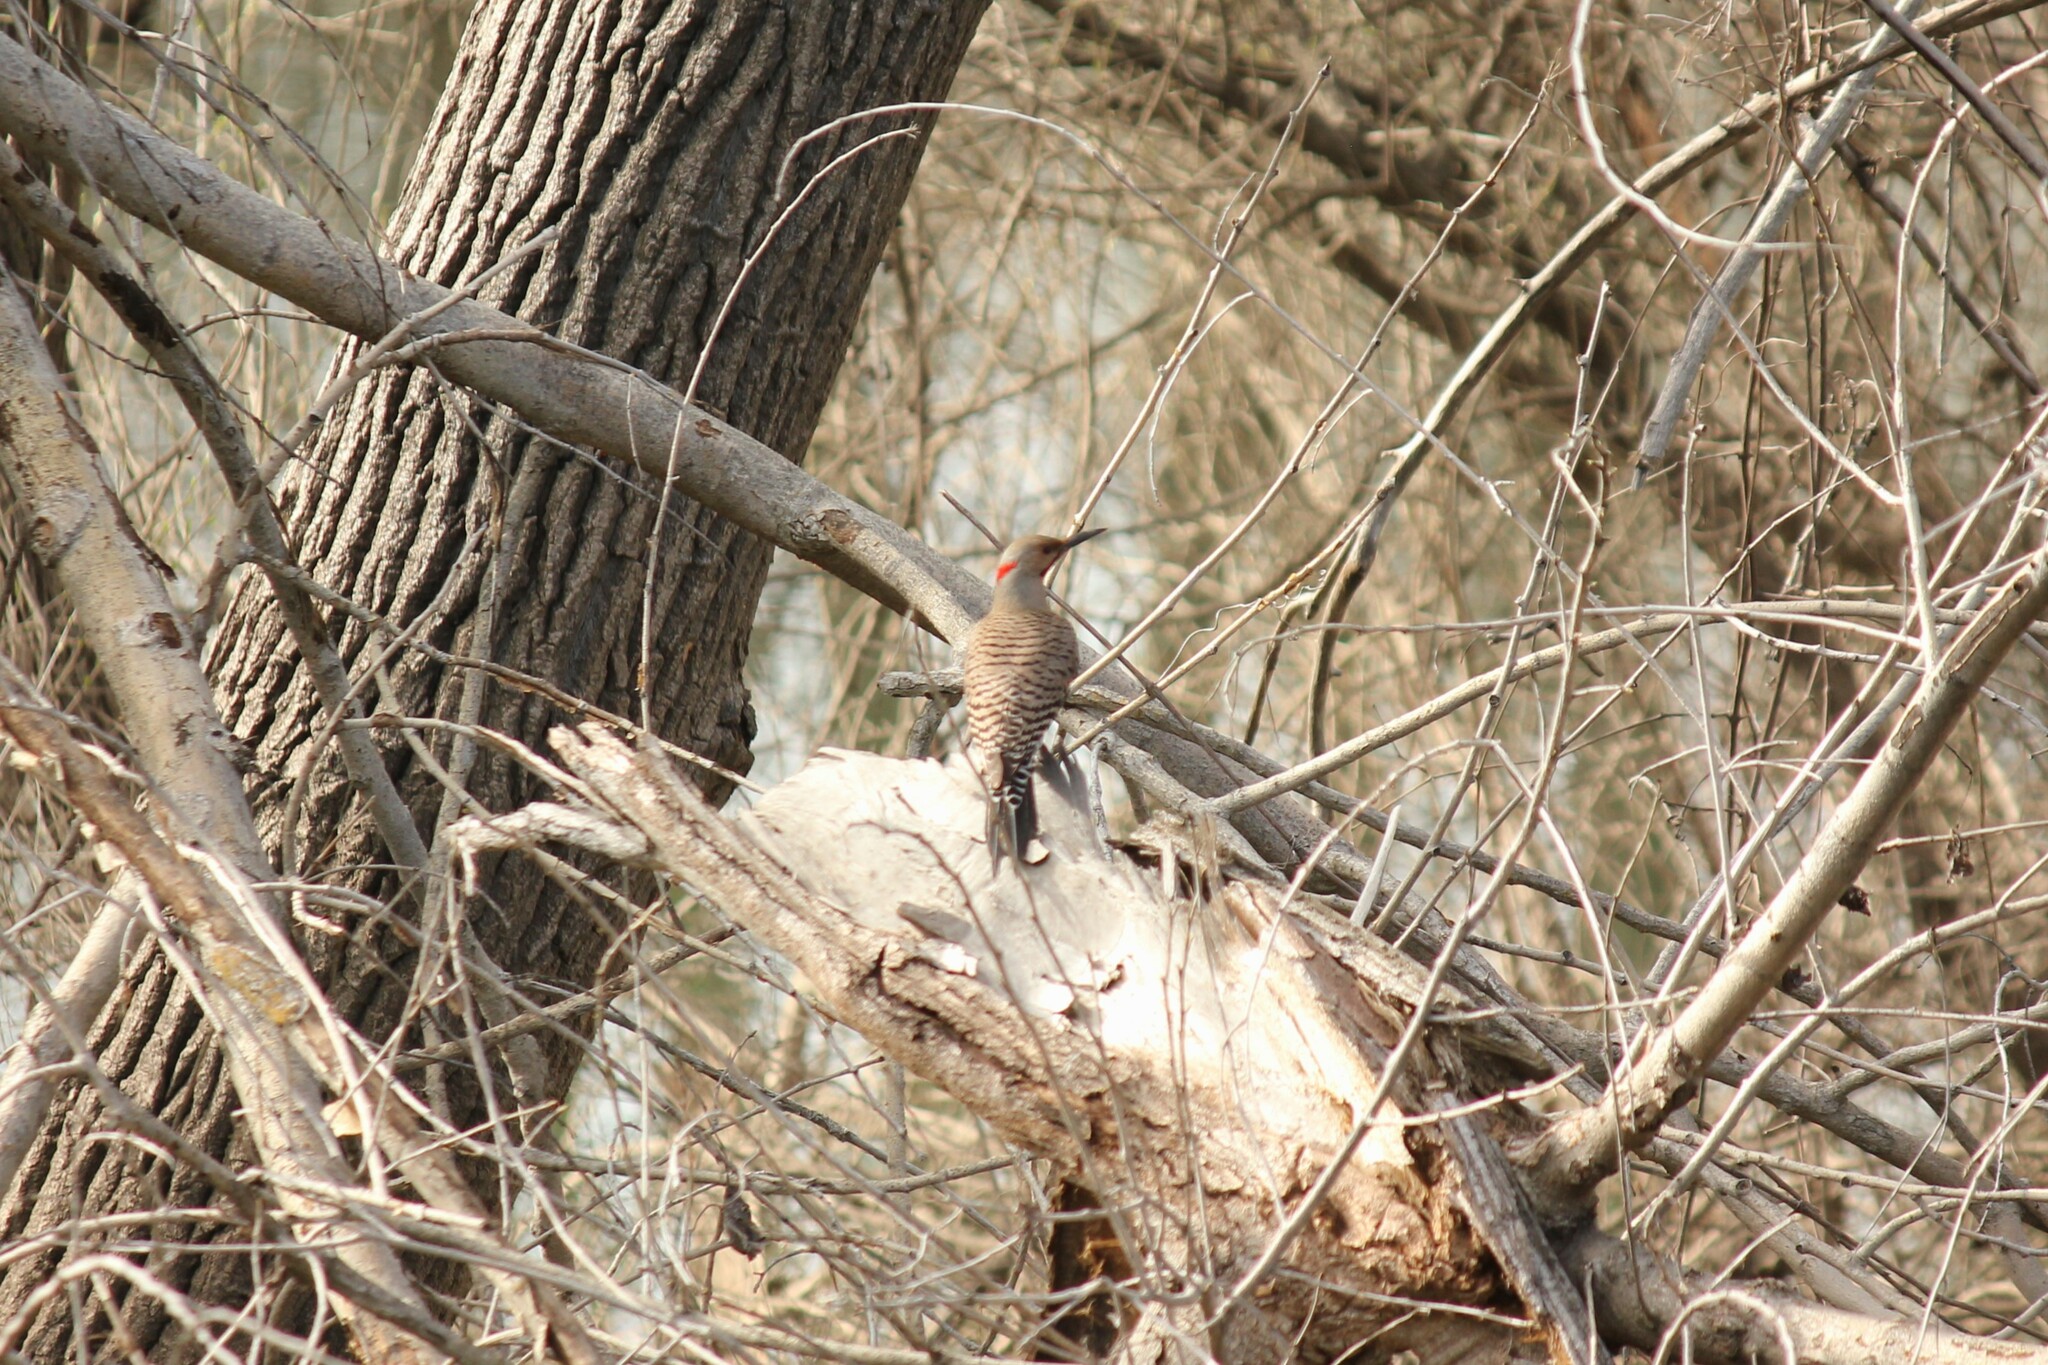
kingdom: Animalia
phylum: Chordata
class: Aves
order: Piciformes
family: Picidae
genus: Colaptes
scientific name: Colaptes auratus
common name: Northern flicker
